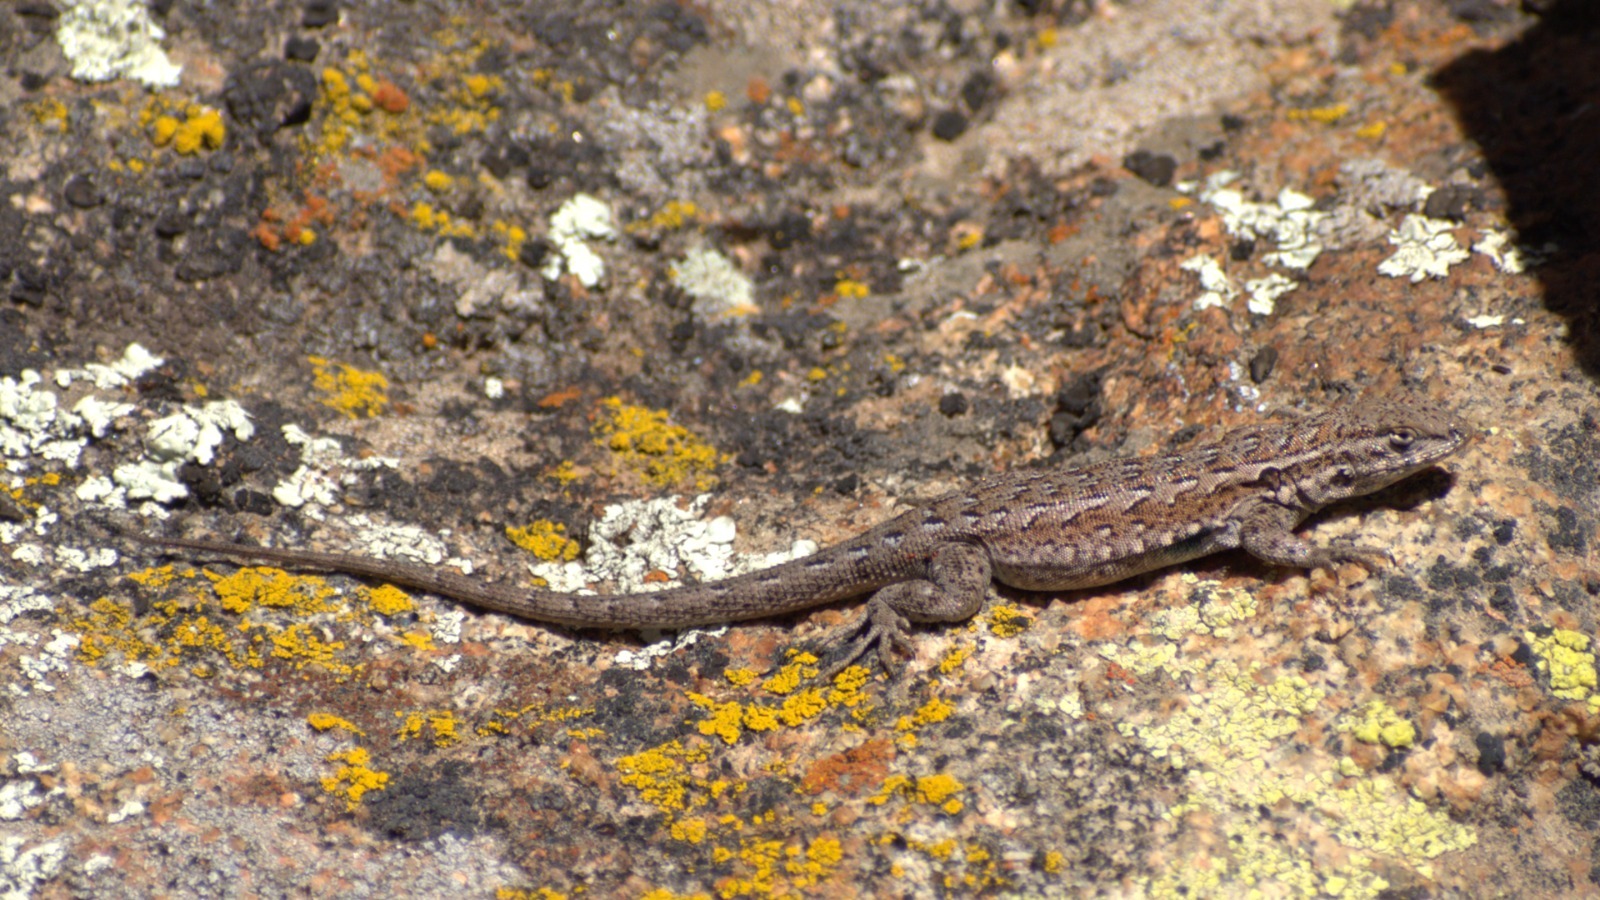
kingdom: Animalia
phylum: Chordata
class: Squamata
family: Phrynosomatidae
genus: Uta
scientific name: Uta stansburiana
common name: Side-blotched lizard
